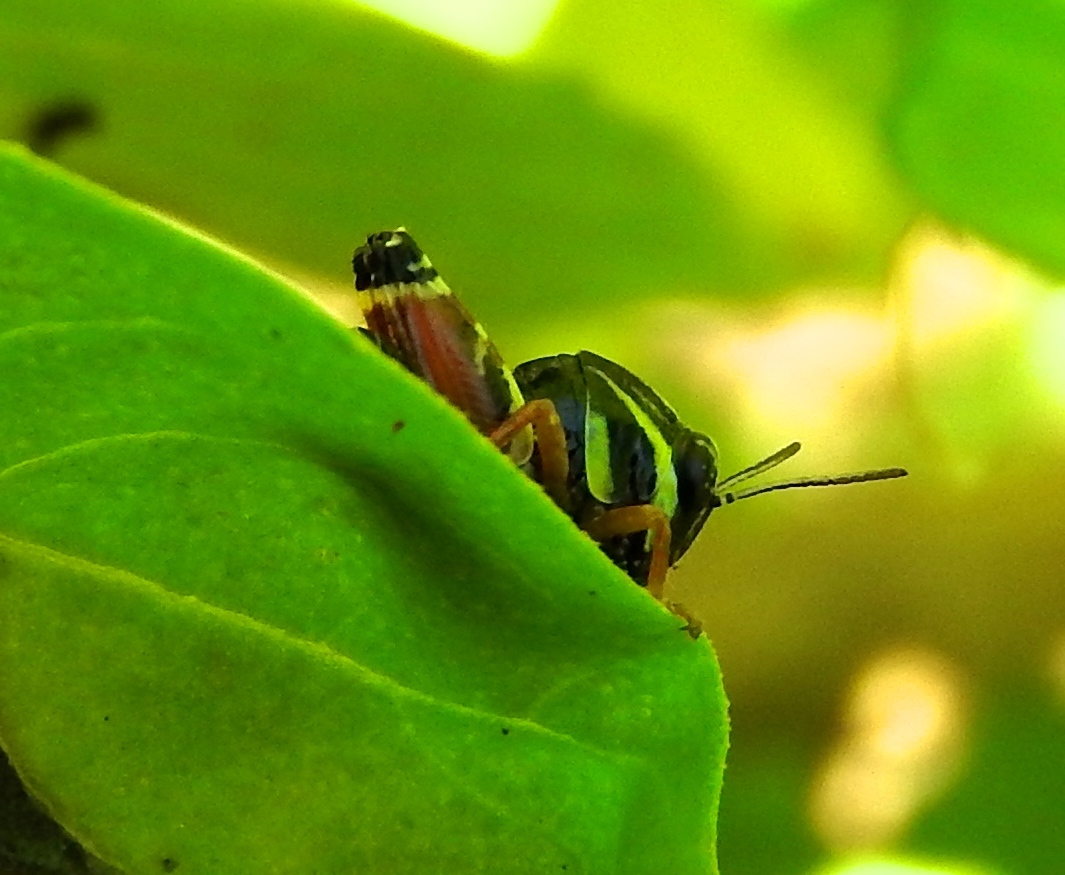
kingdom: Animalia
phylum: Arthropoda
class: Insecta
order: Orthoptera
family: Acrididae
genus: Aidemona
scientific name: Aidemona azteca
